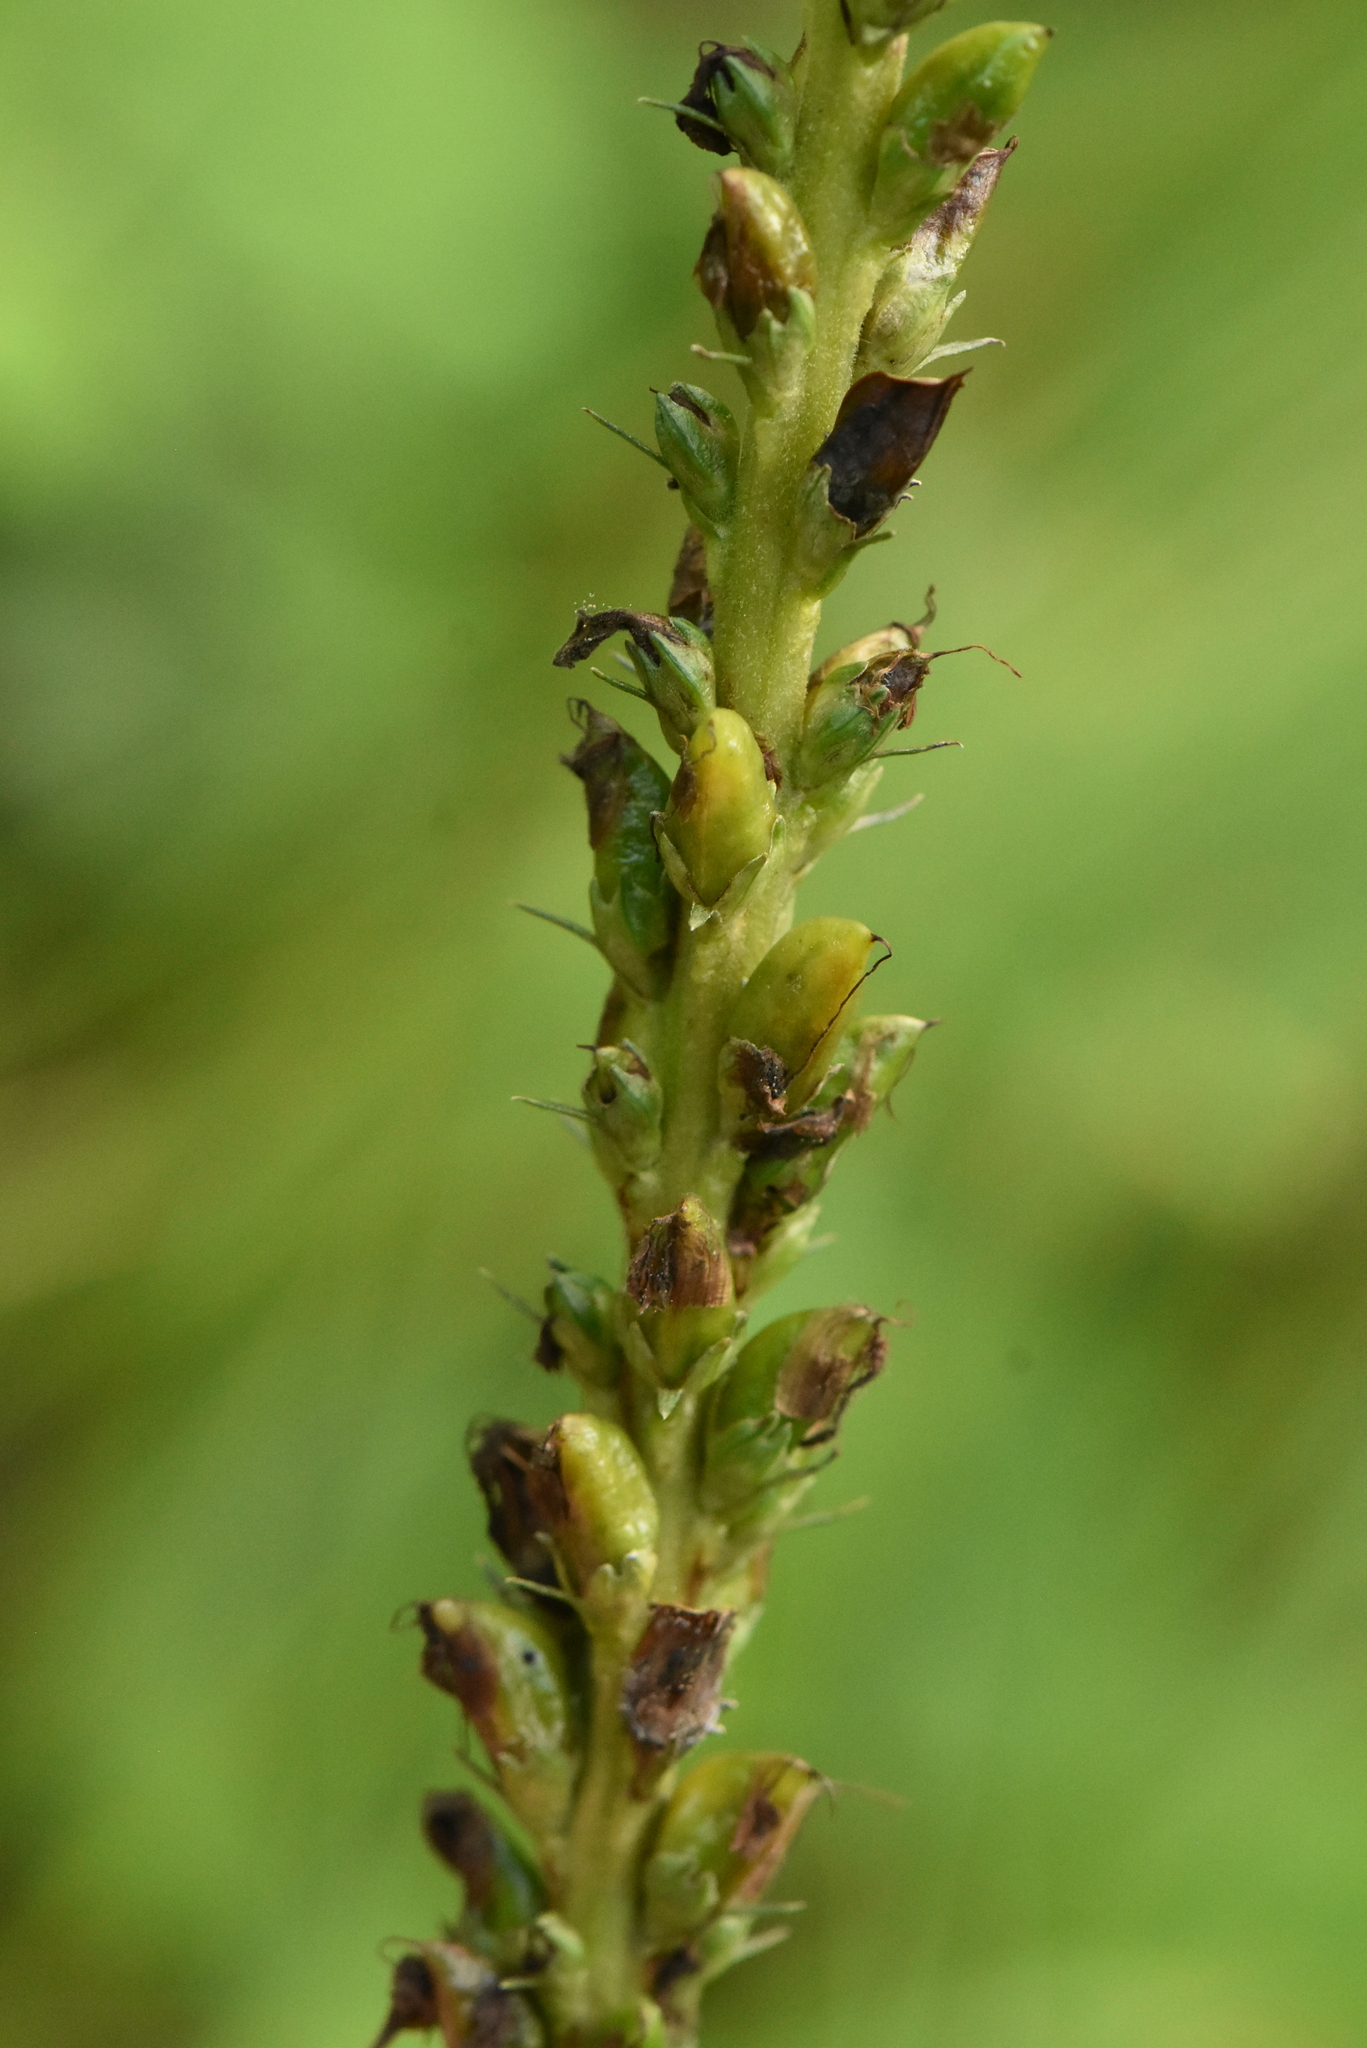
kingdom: Plantae
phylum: Tracheophyta
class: Magnoliopsida
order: Lamiales
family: Orobanchaceae
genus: Pedicularis
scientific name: Pedicularis incarnata
